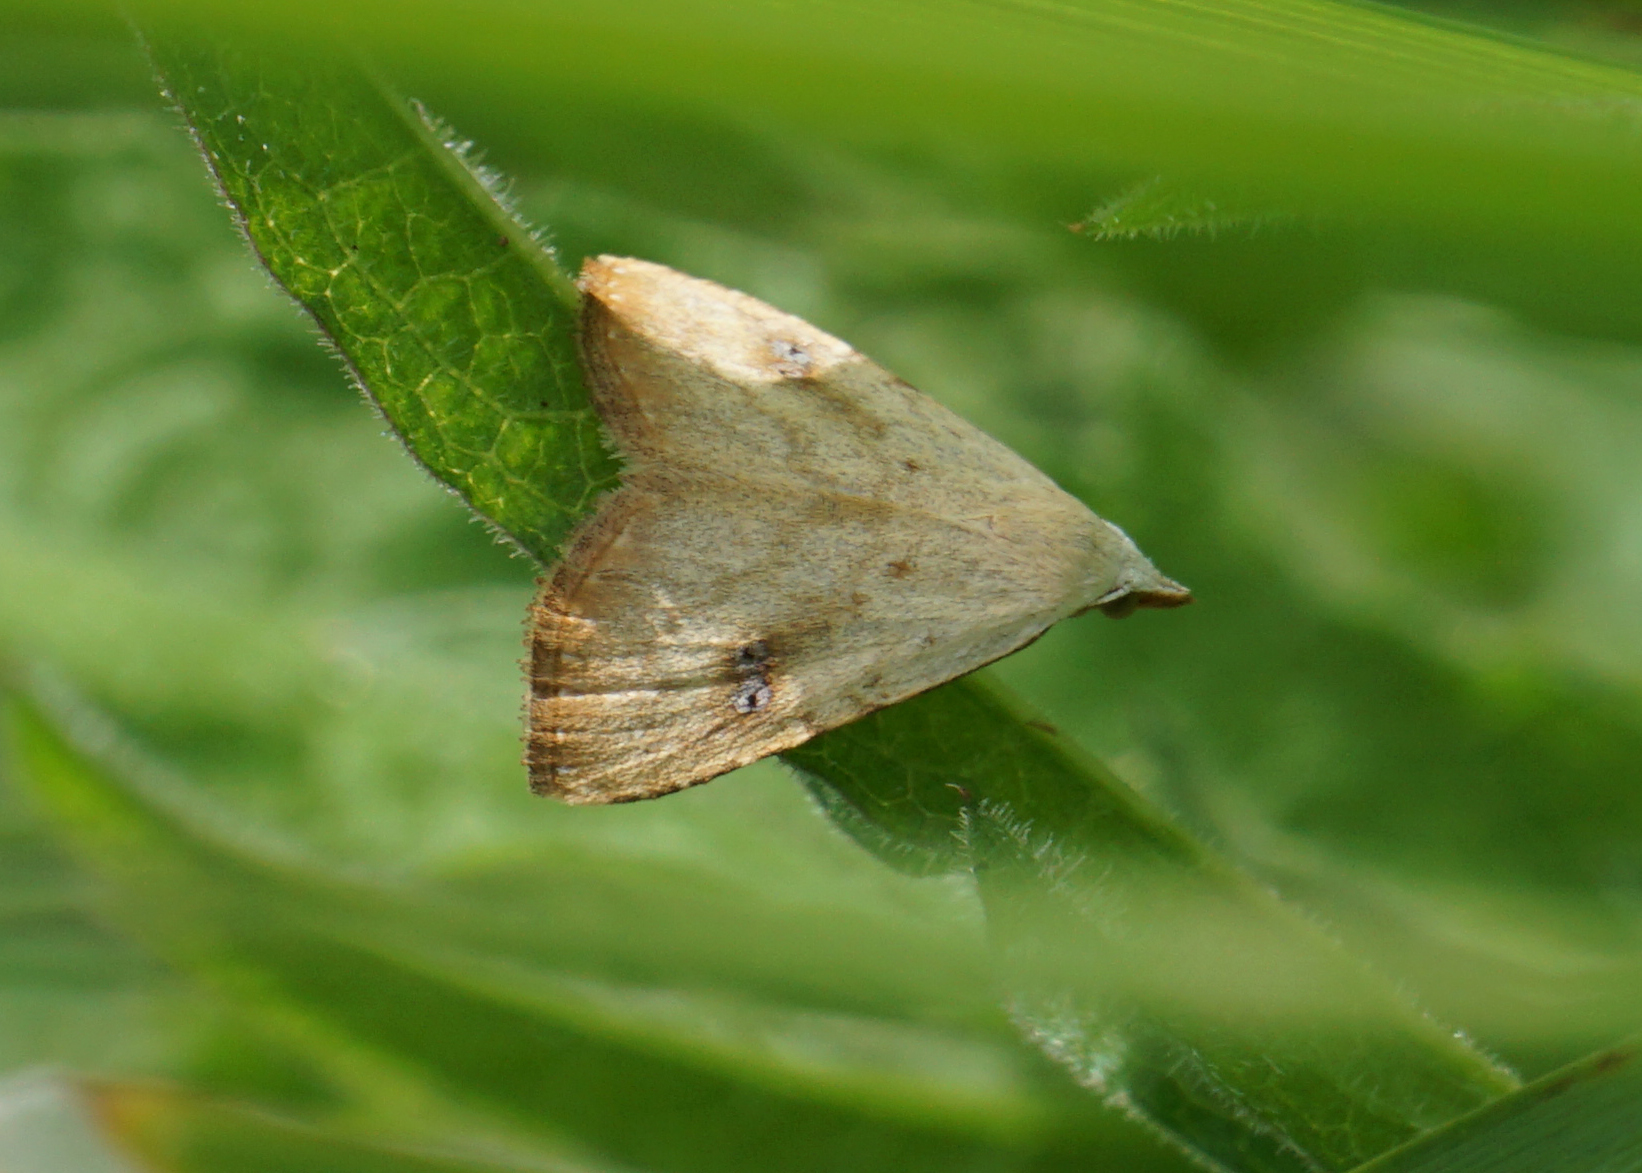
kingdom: Animalia
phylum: Arthropoda
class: Insecta
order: Lepidoptera
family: Erebidae
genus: Rivula
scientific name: Rivula sericealis
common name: Straw dot
